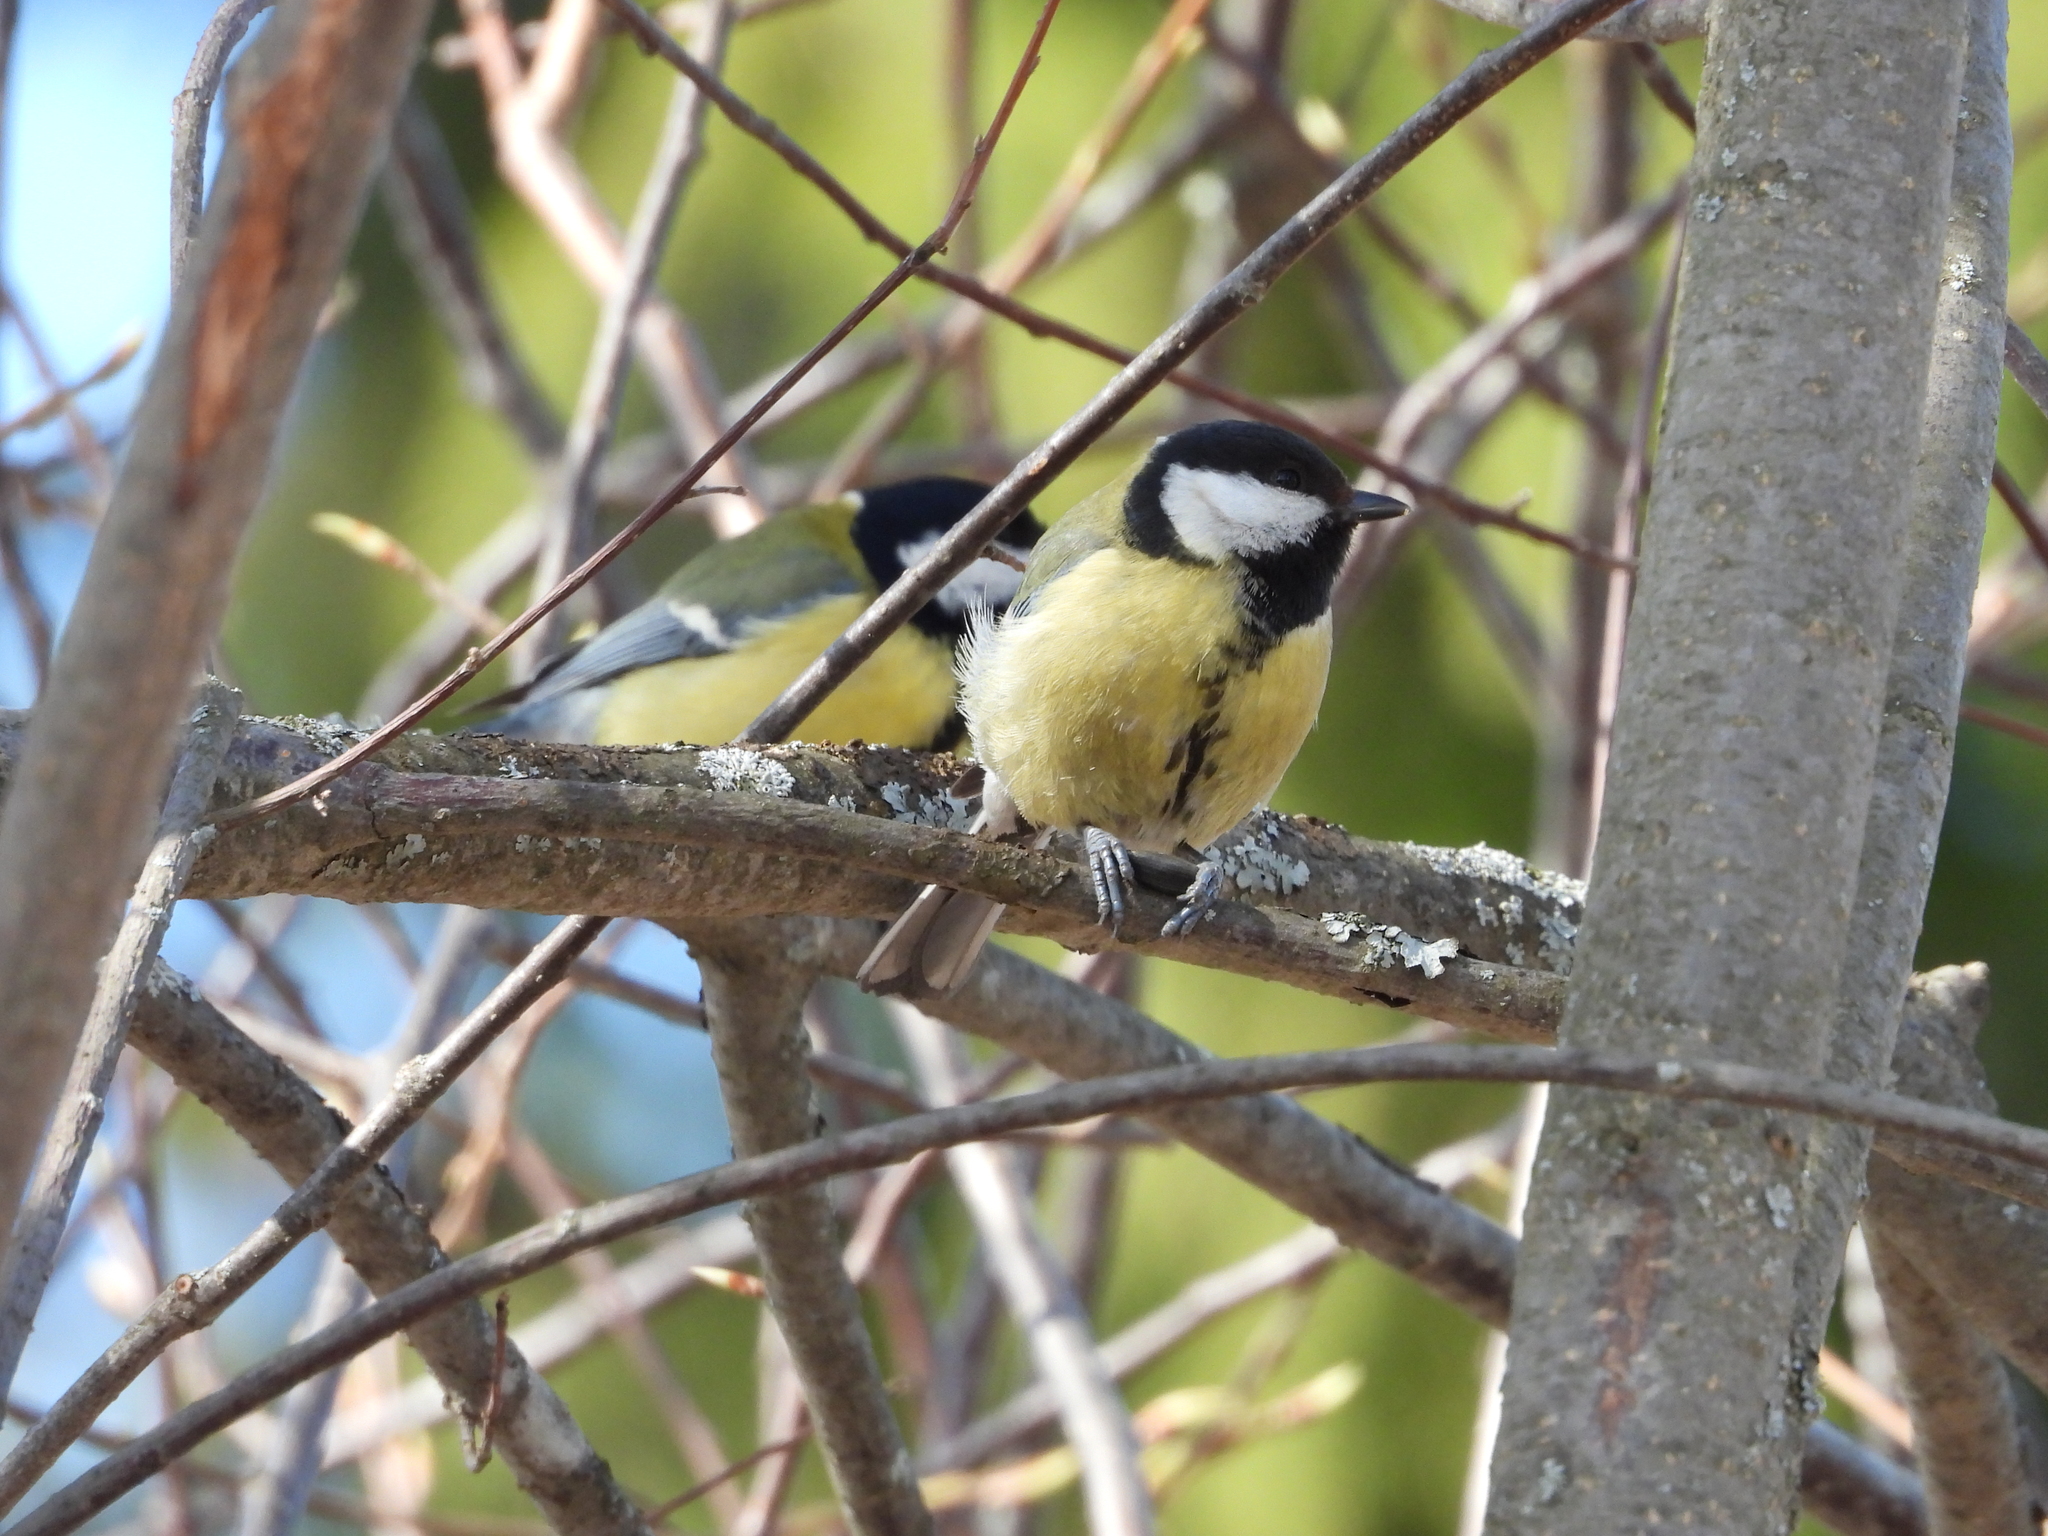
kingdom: Animalia
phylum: Chordata
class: Aves
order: Passeriformes
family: Paridae
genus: Parus
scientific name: Parus major
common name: Great tit
